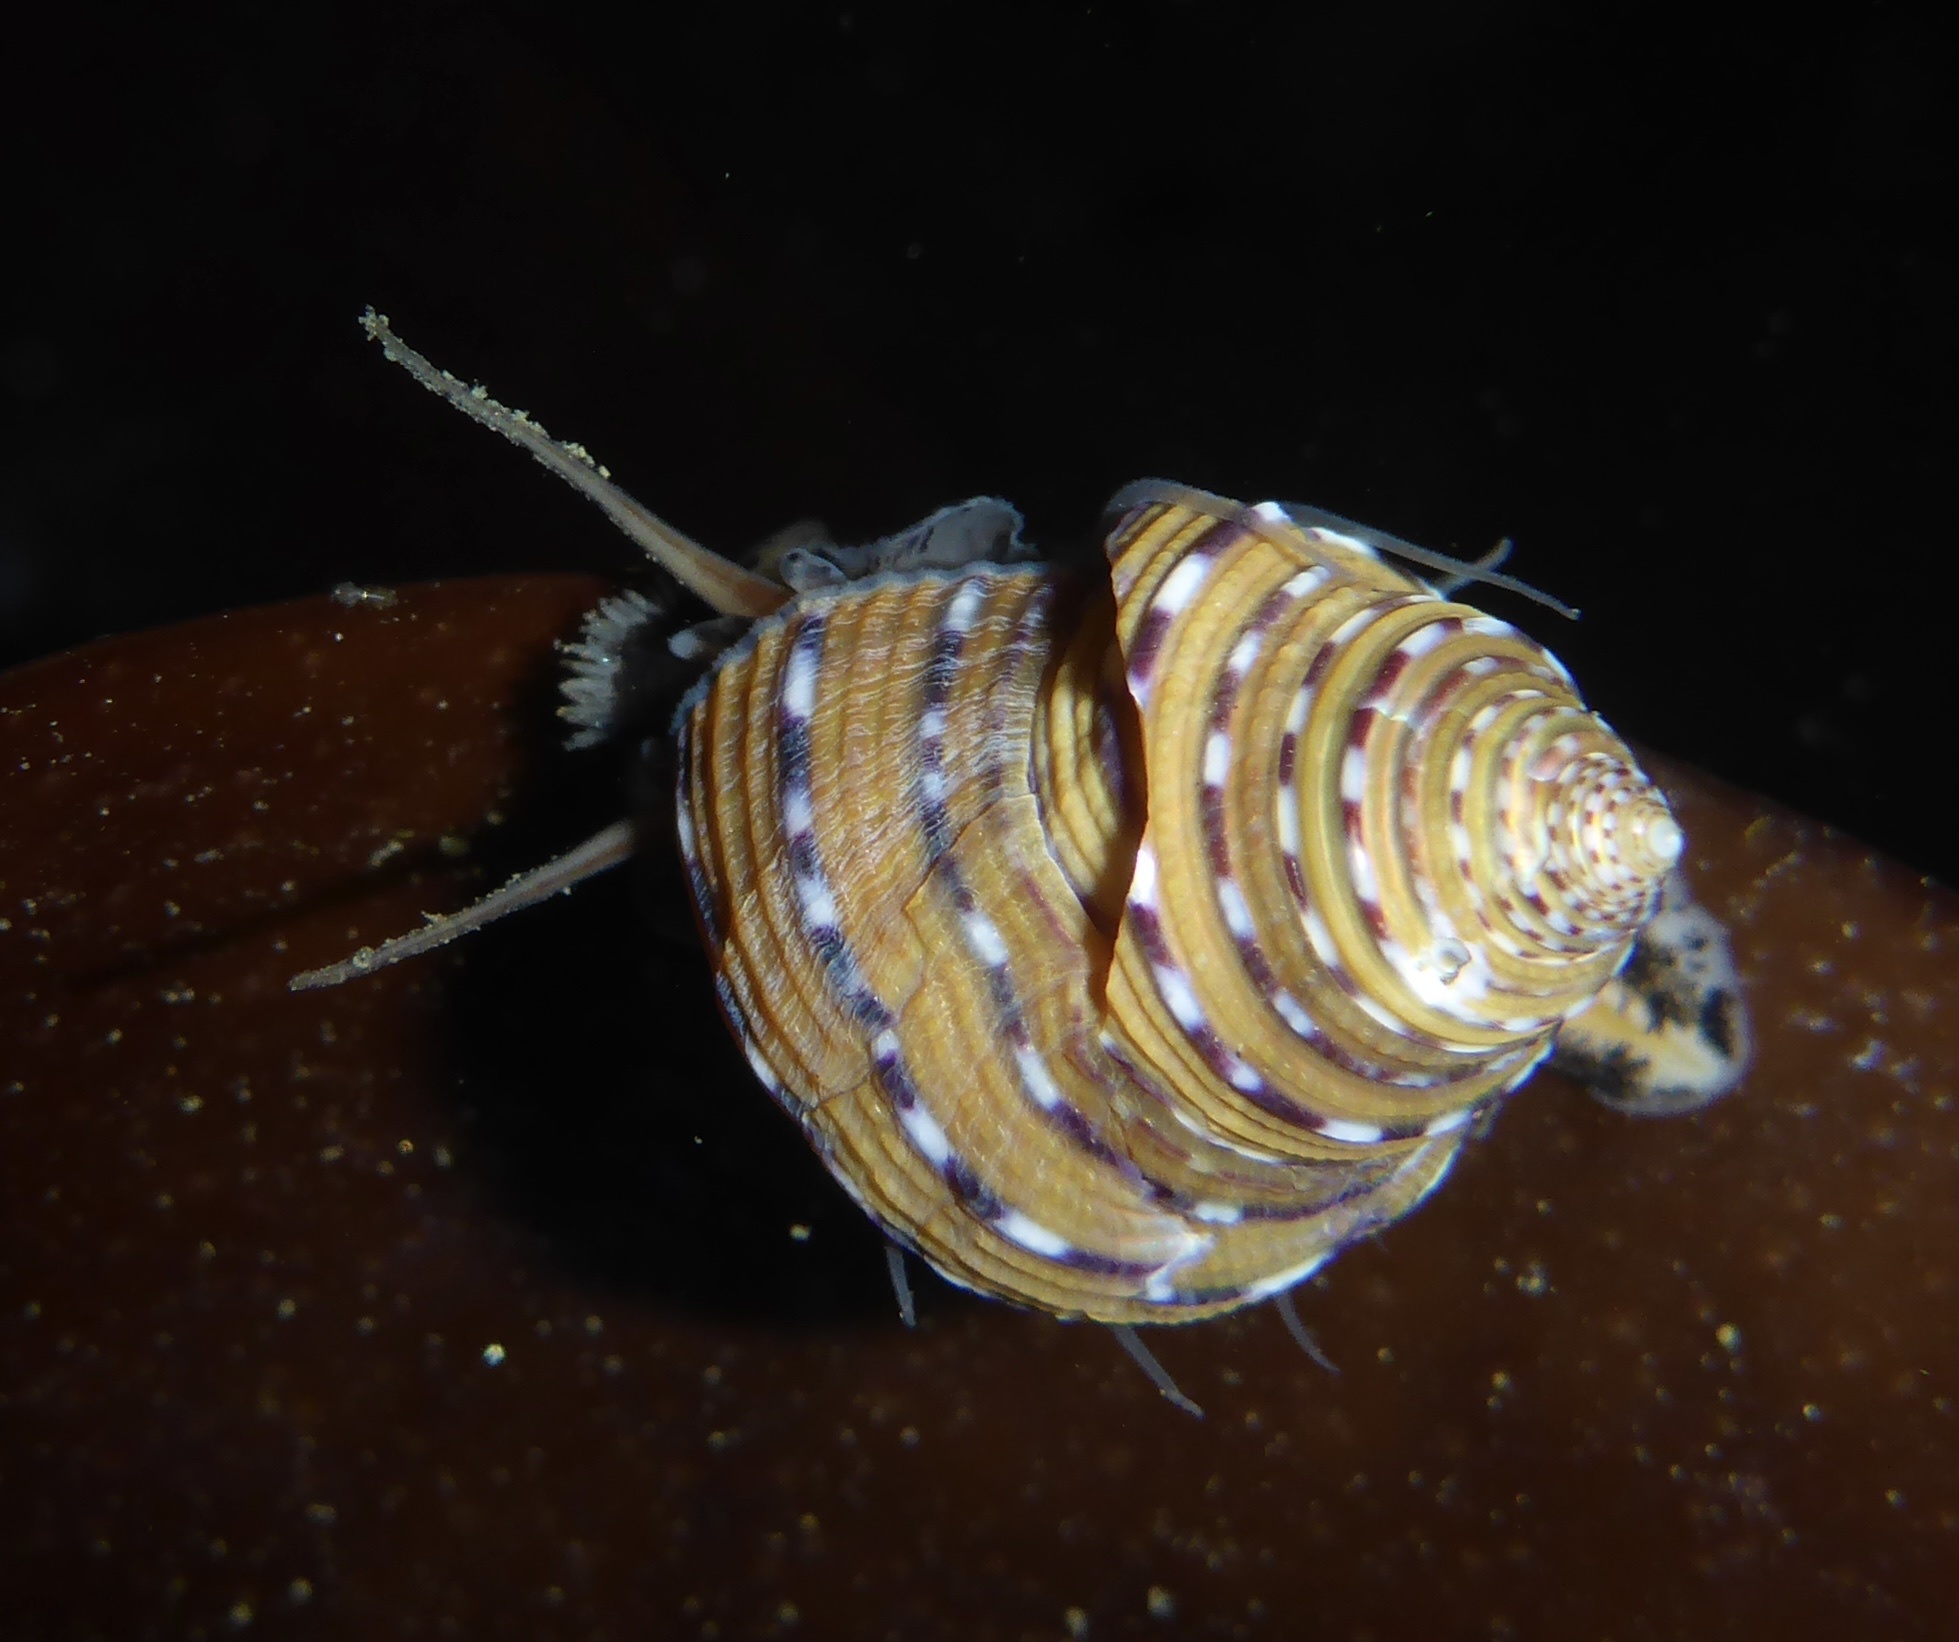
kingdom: Animalia
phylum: Mollusca
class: Gastropoda
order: Trochida
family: Calliostomatidae
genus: Calliostoma
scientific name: Calliostoma tricolor
